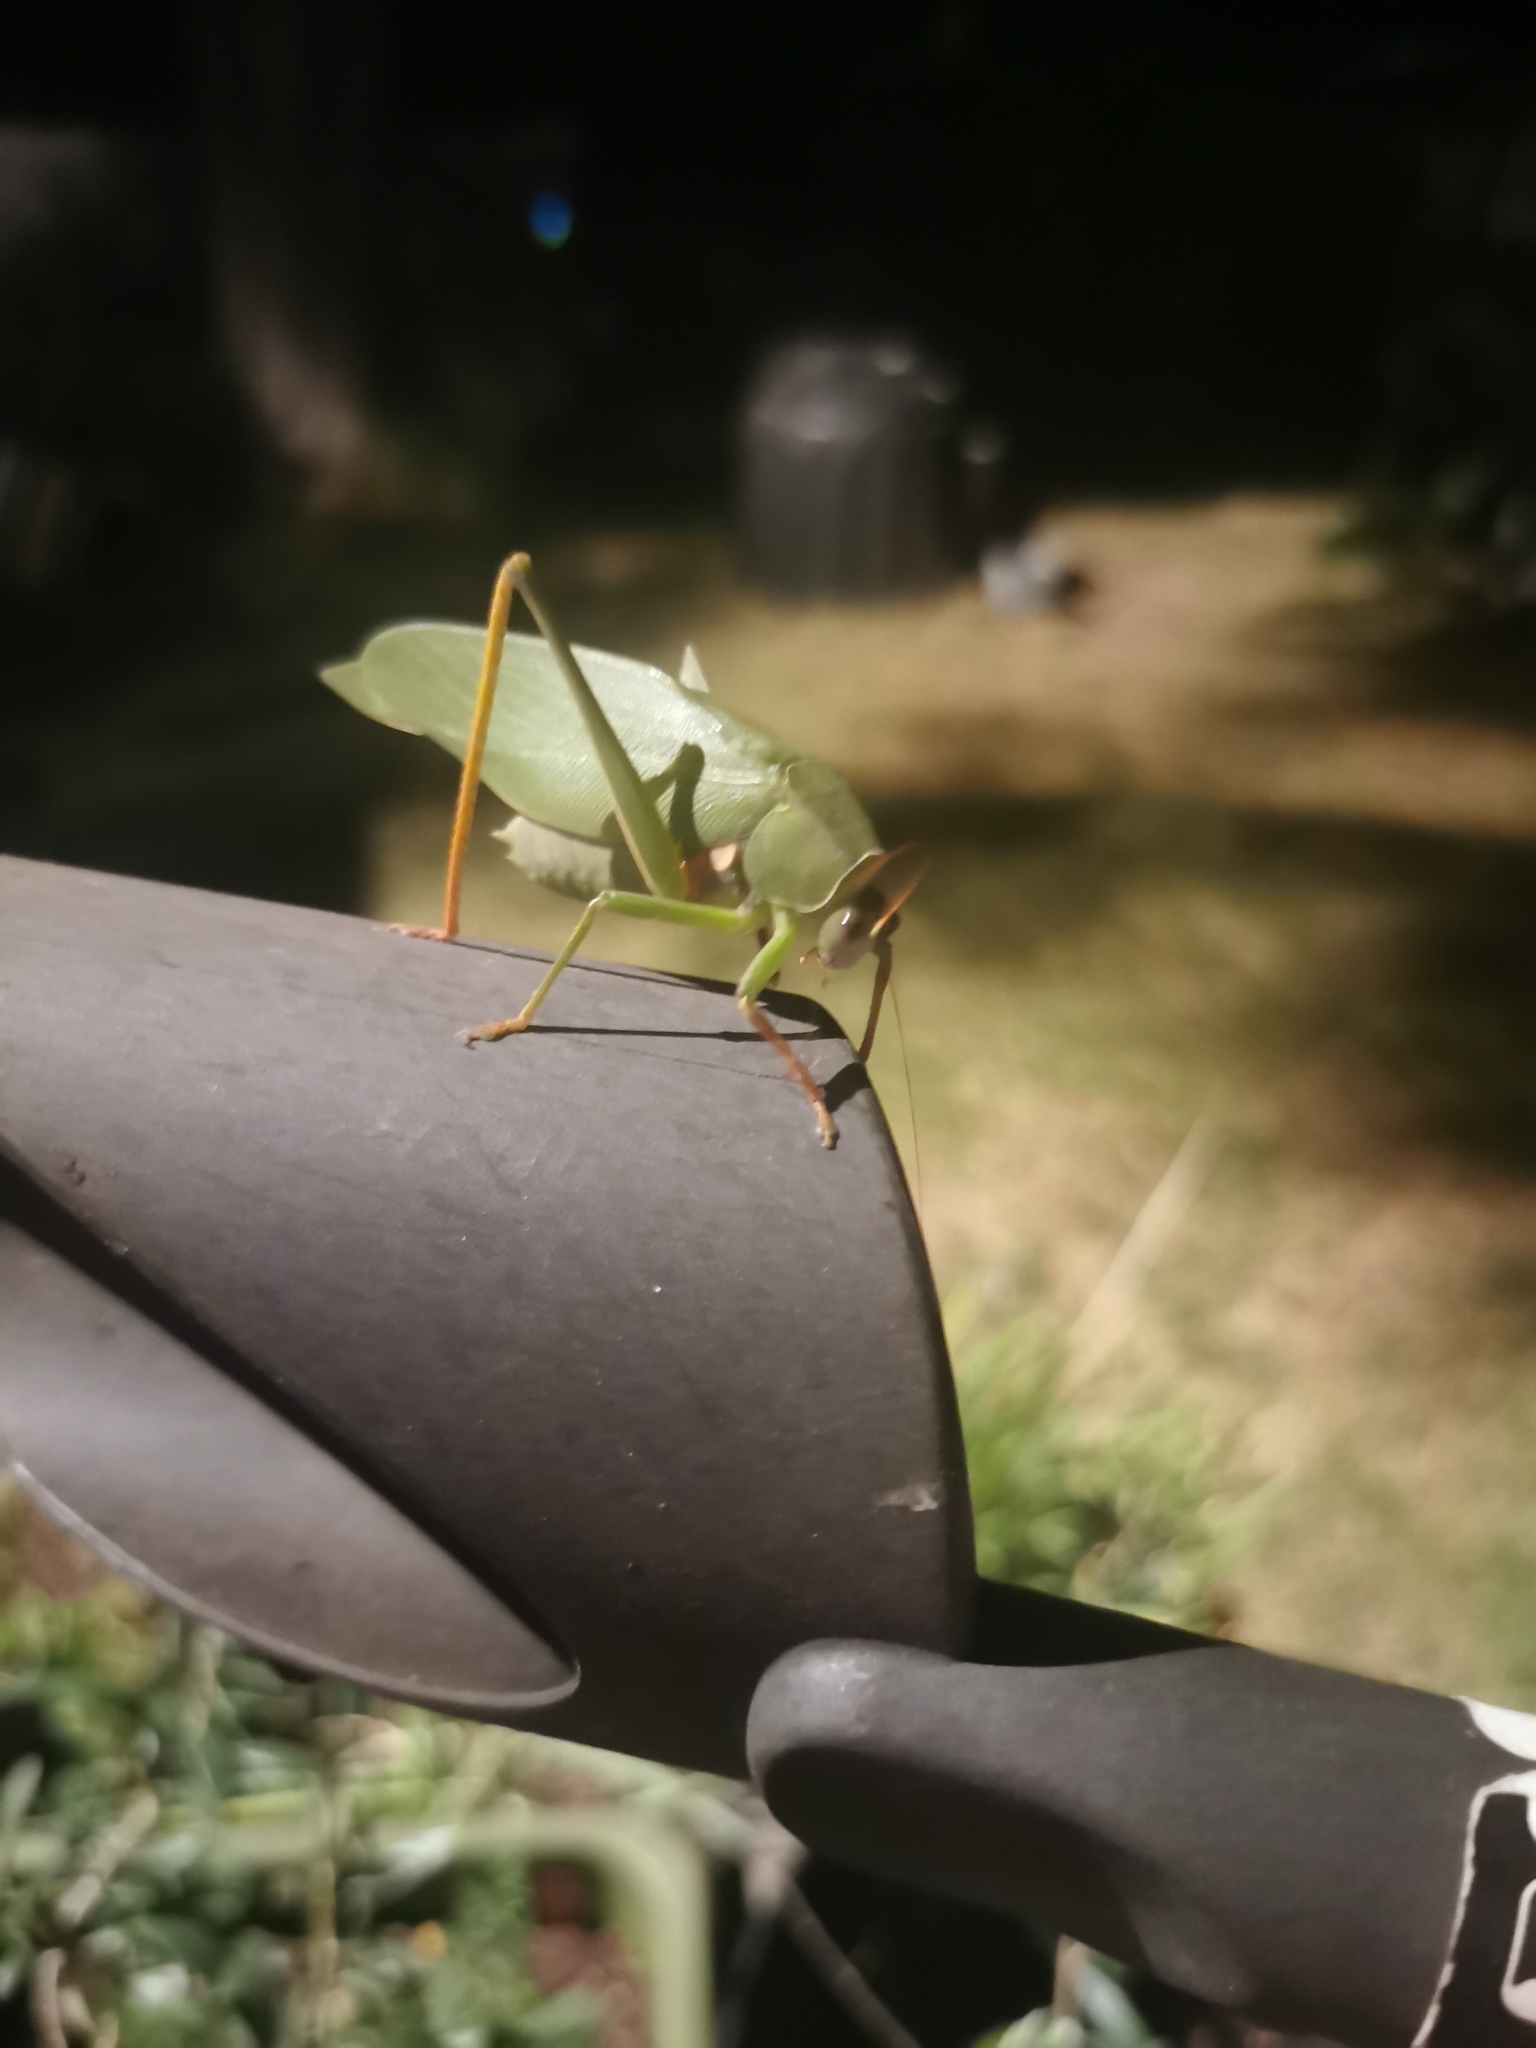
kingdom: Animalia
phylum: Arthropoda
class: Insecta
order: Orthoptera
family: Tettigoniidae
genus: Torbia
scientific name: Torbia perficita
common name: Giant torbia
